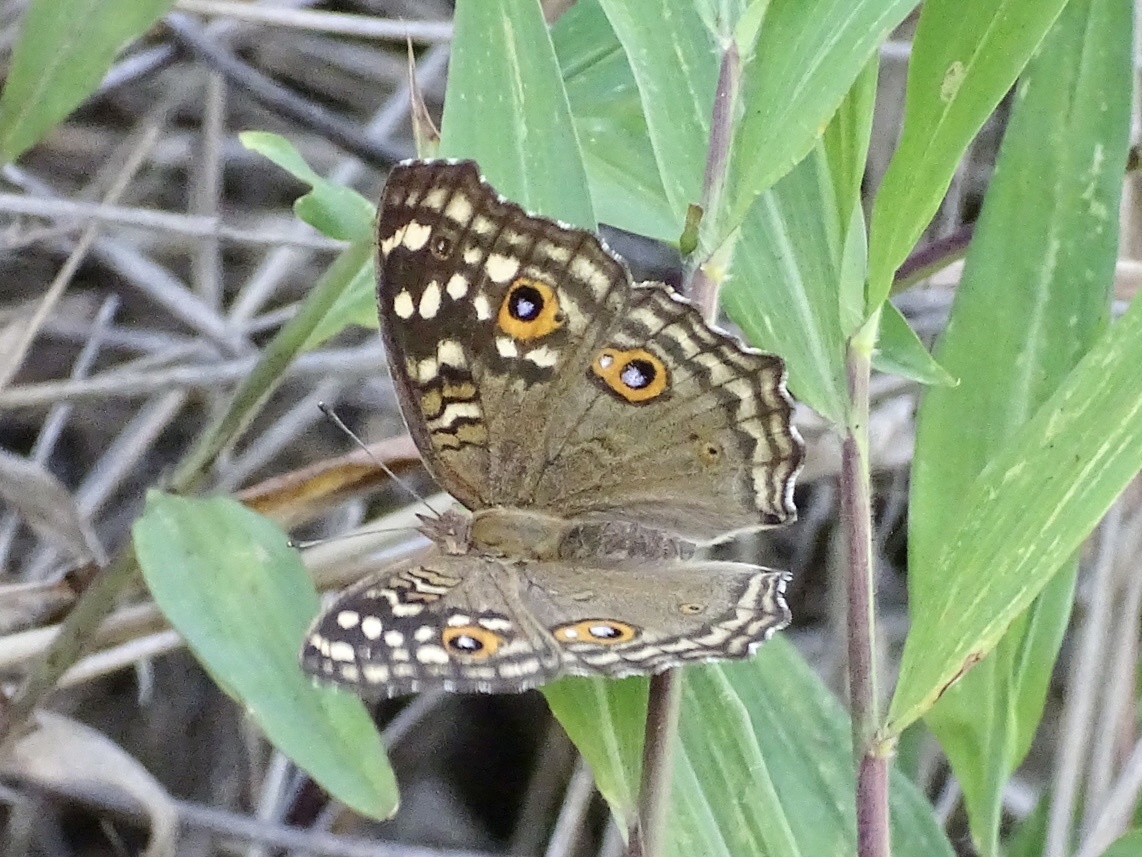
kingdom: Animalia
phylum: Arthropoda
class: Insecta
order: Lepidoptera
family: Nymphalidae
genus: Junonia
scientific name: Junonia lemonias
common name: Lemon pansy
